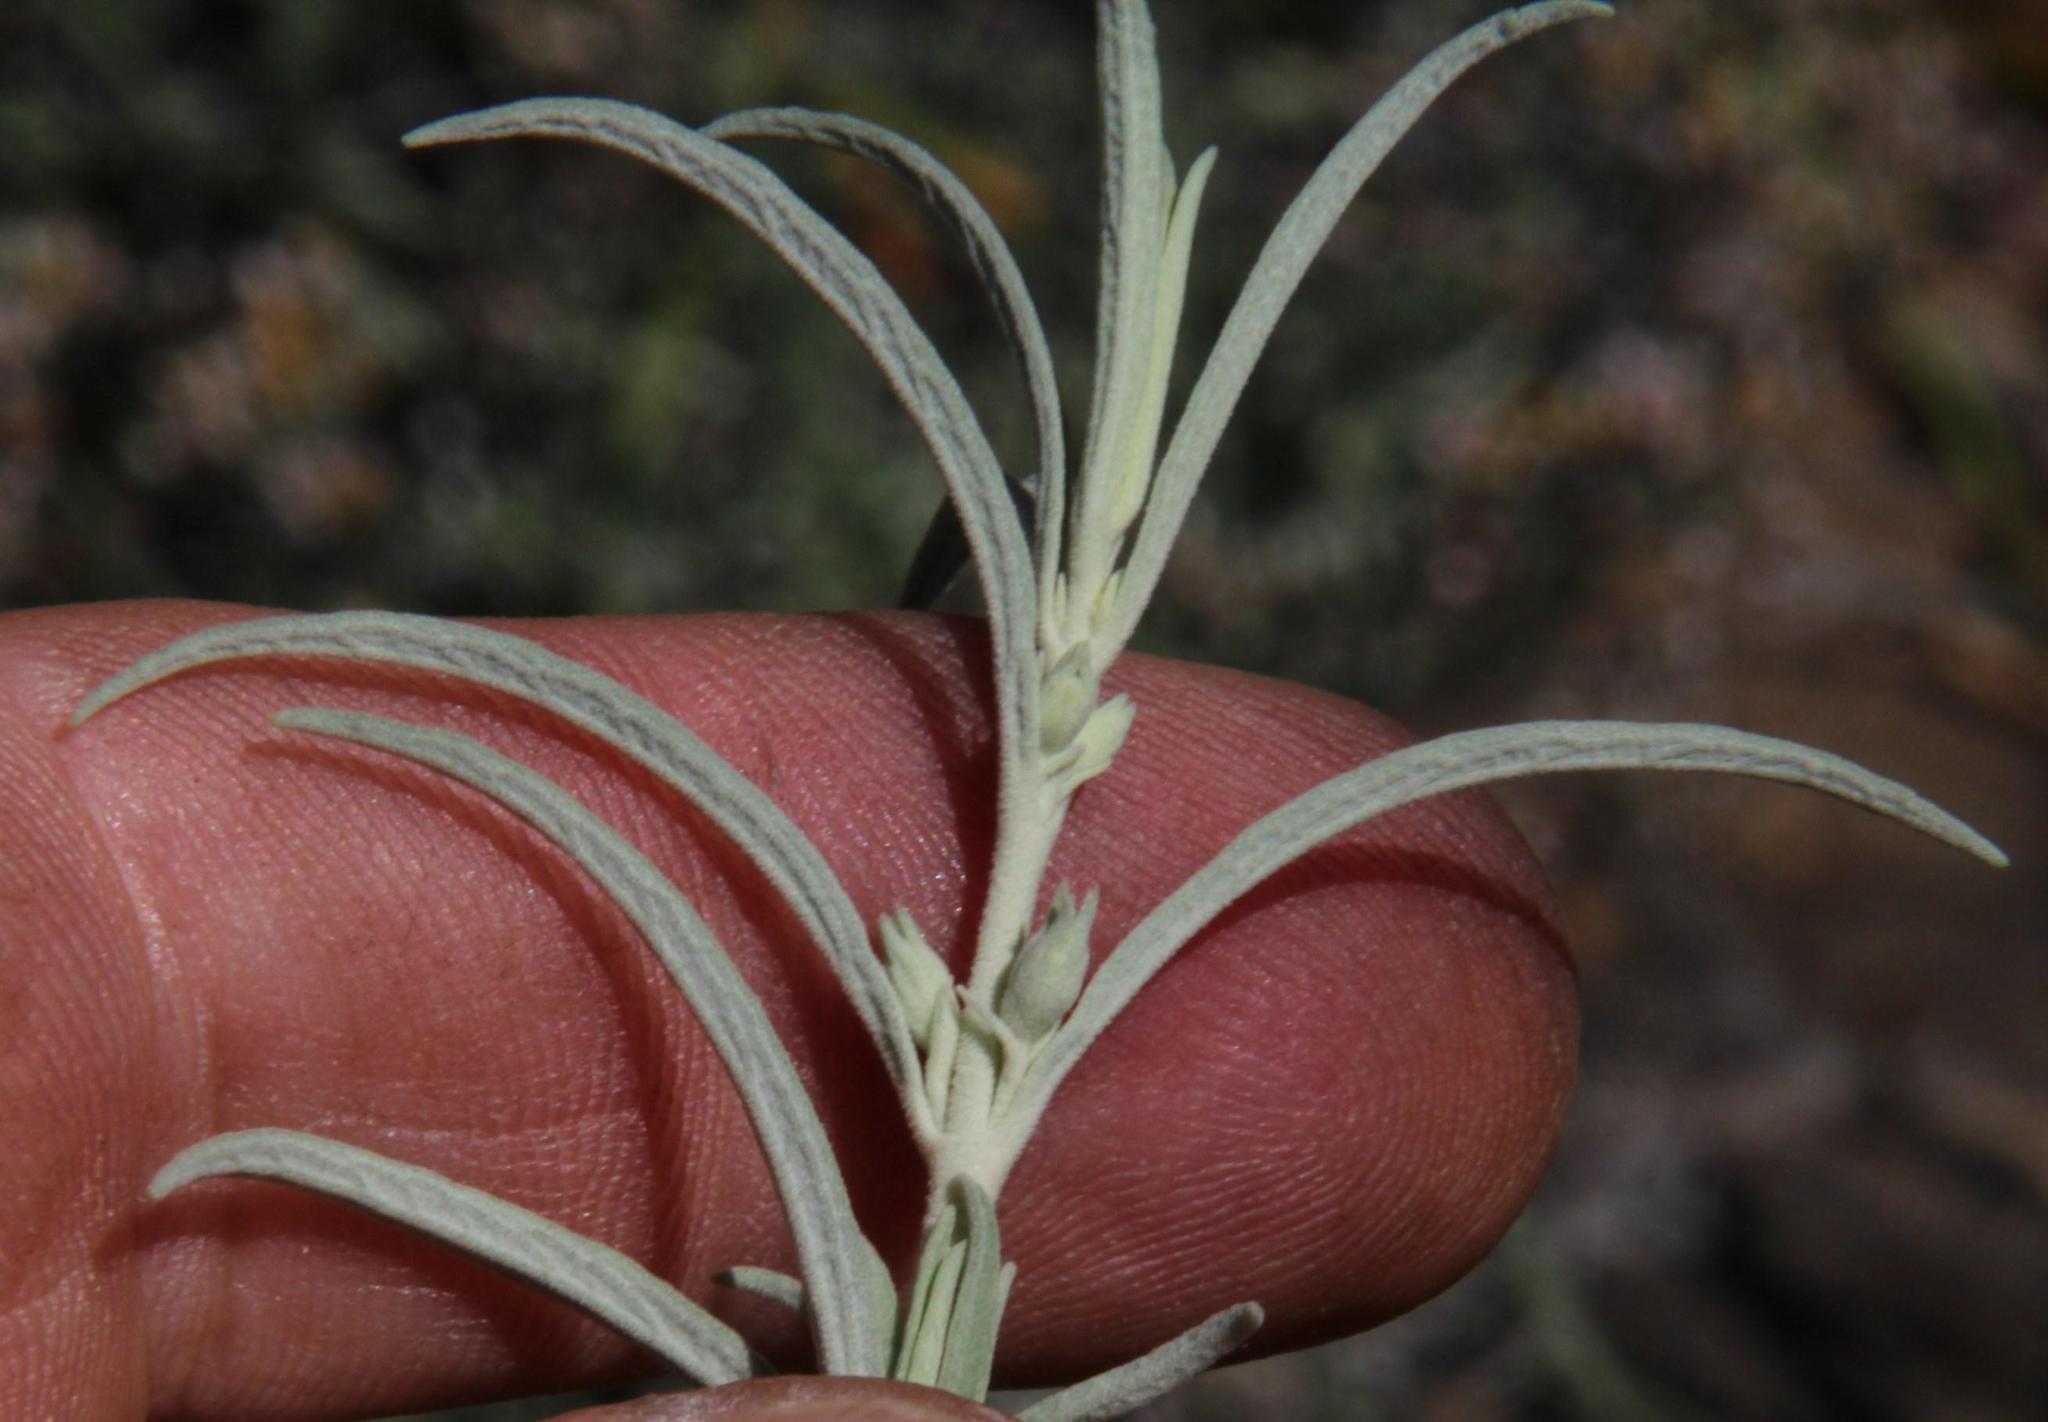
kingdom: Plantae
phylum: Tracheophyta
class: Magnoliopsida
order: Lamiales
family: Lamiaceae
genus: Stachys
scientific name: Stachys linearis
